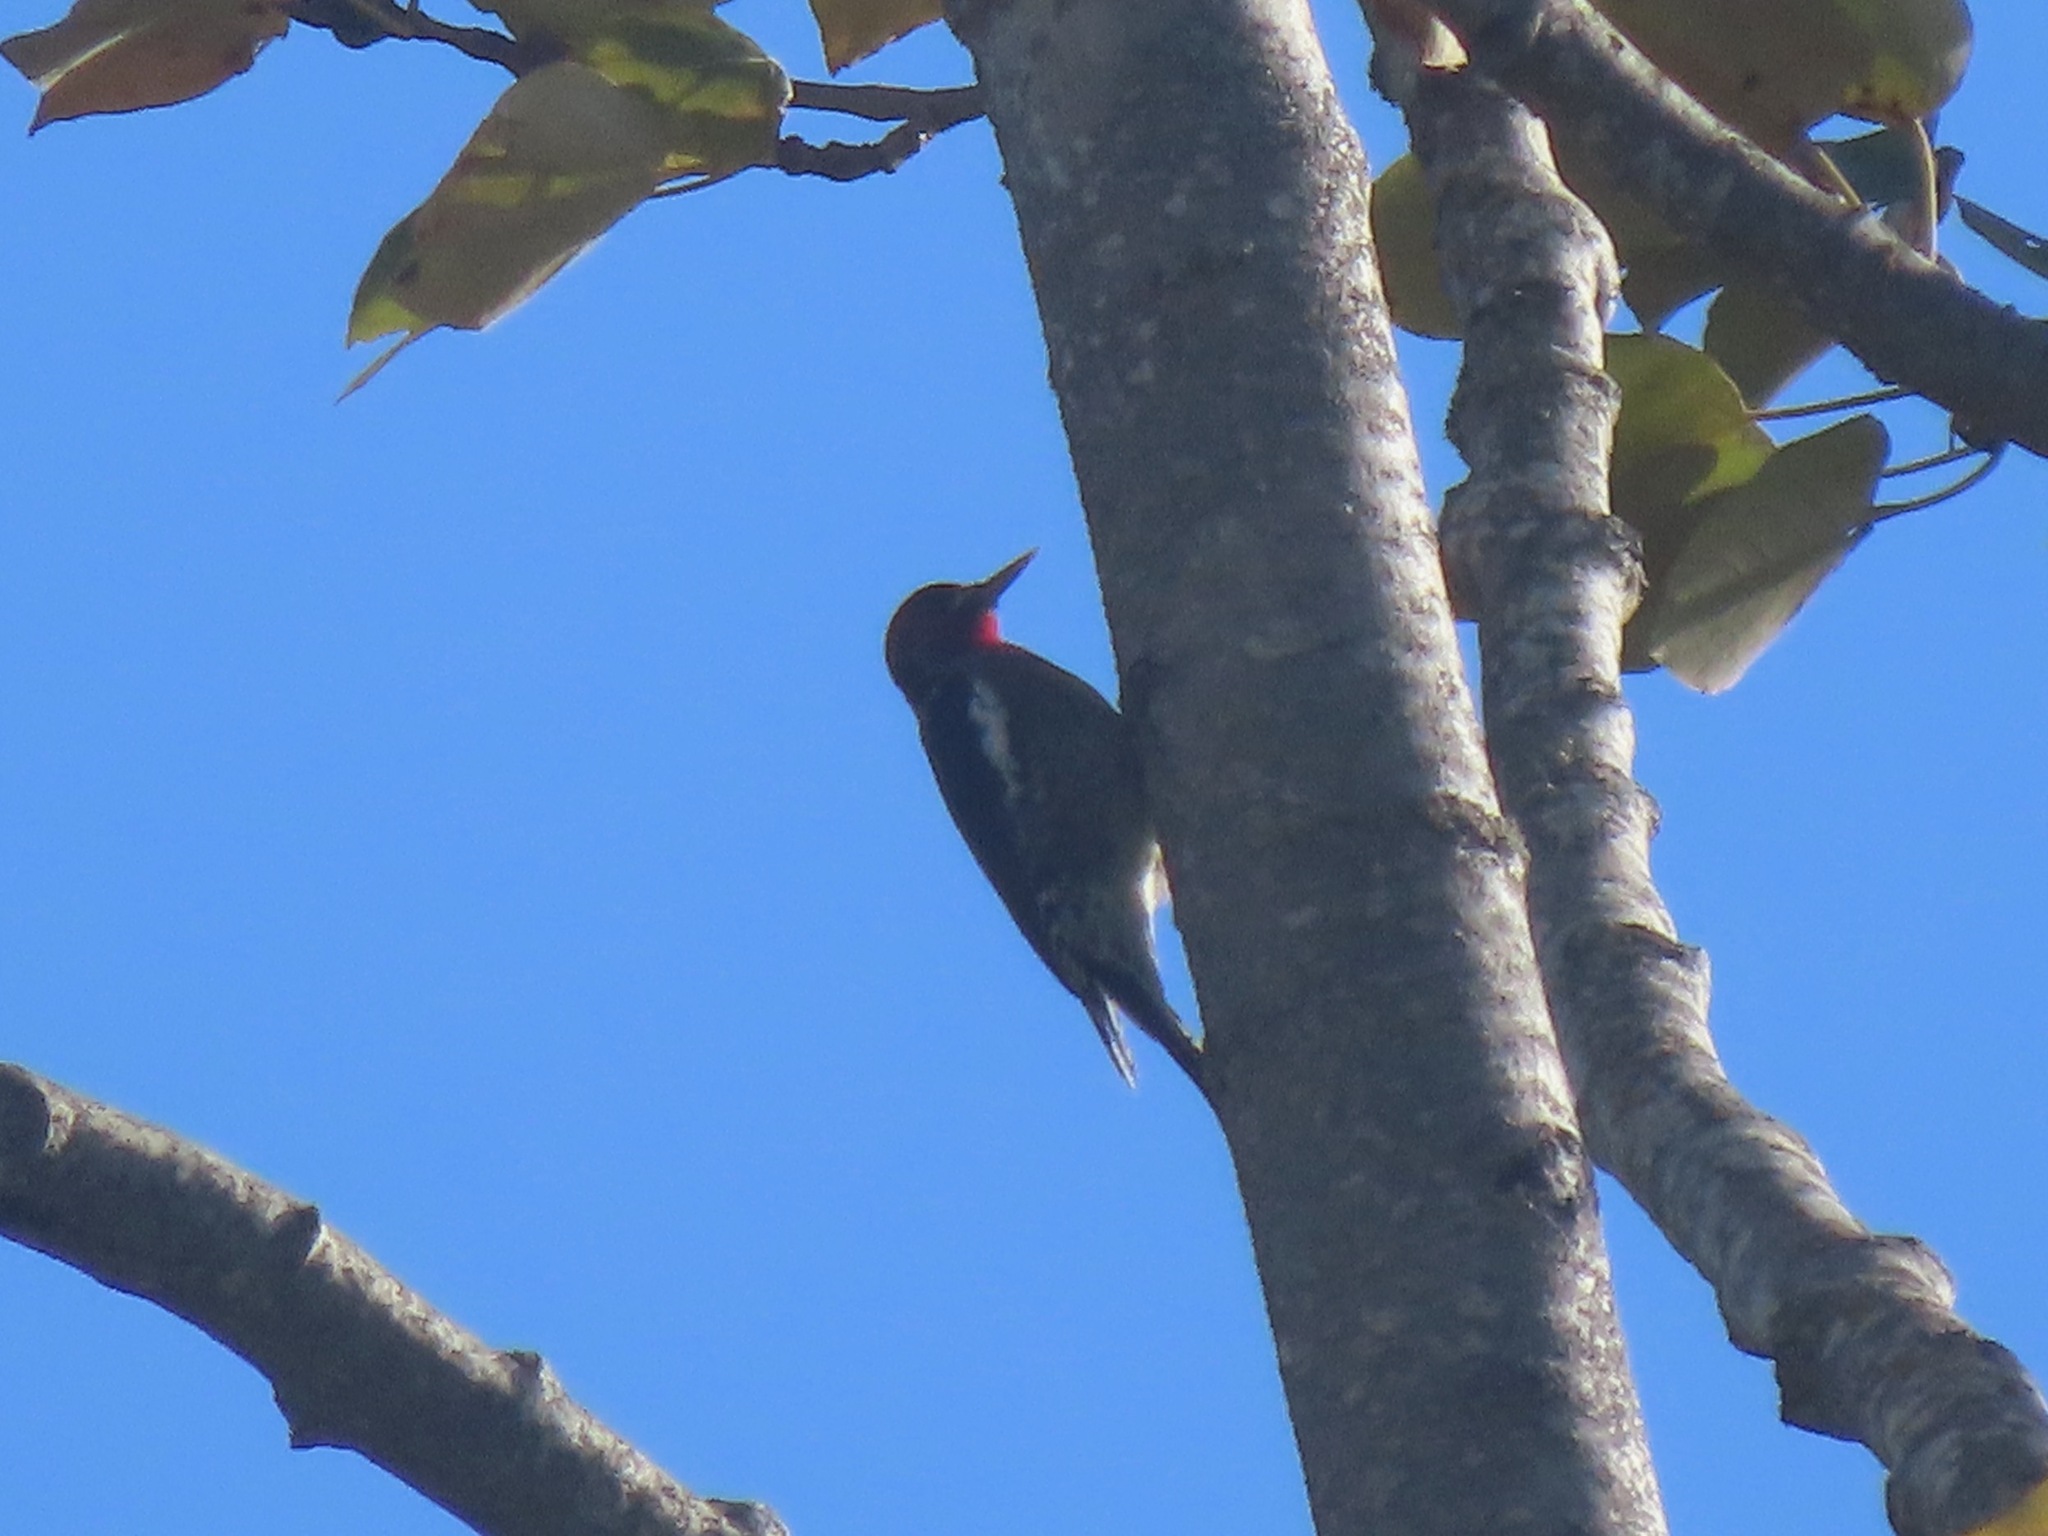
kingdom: Animalia
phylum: Chordata
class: Aves
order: Piciformes
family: Picidae
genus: Sphyrapicus
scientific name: Sphyrapicus ruber
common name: Red-breasted sapsucker
